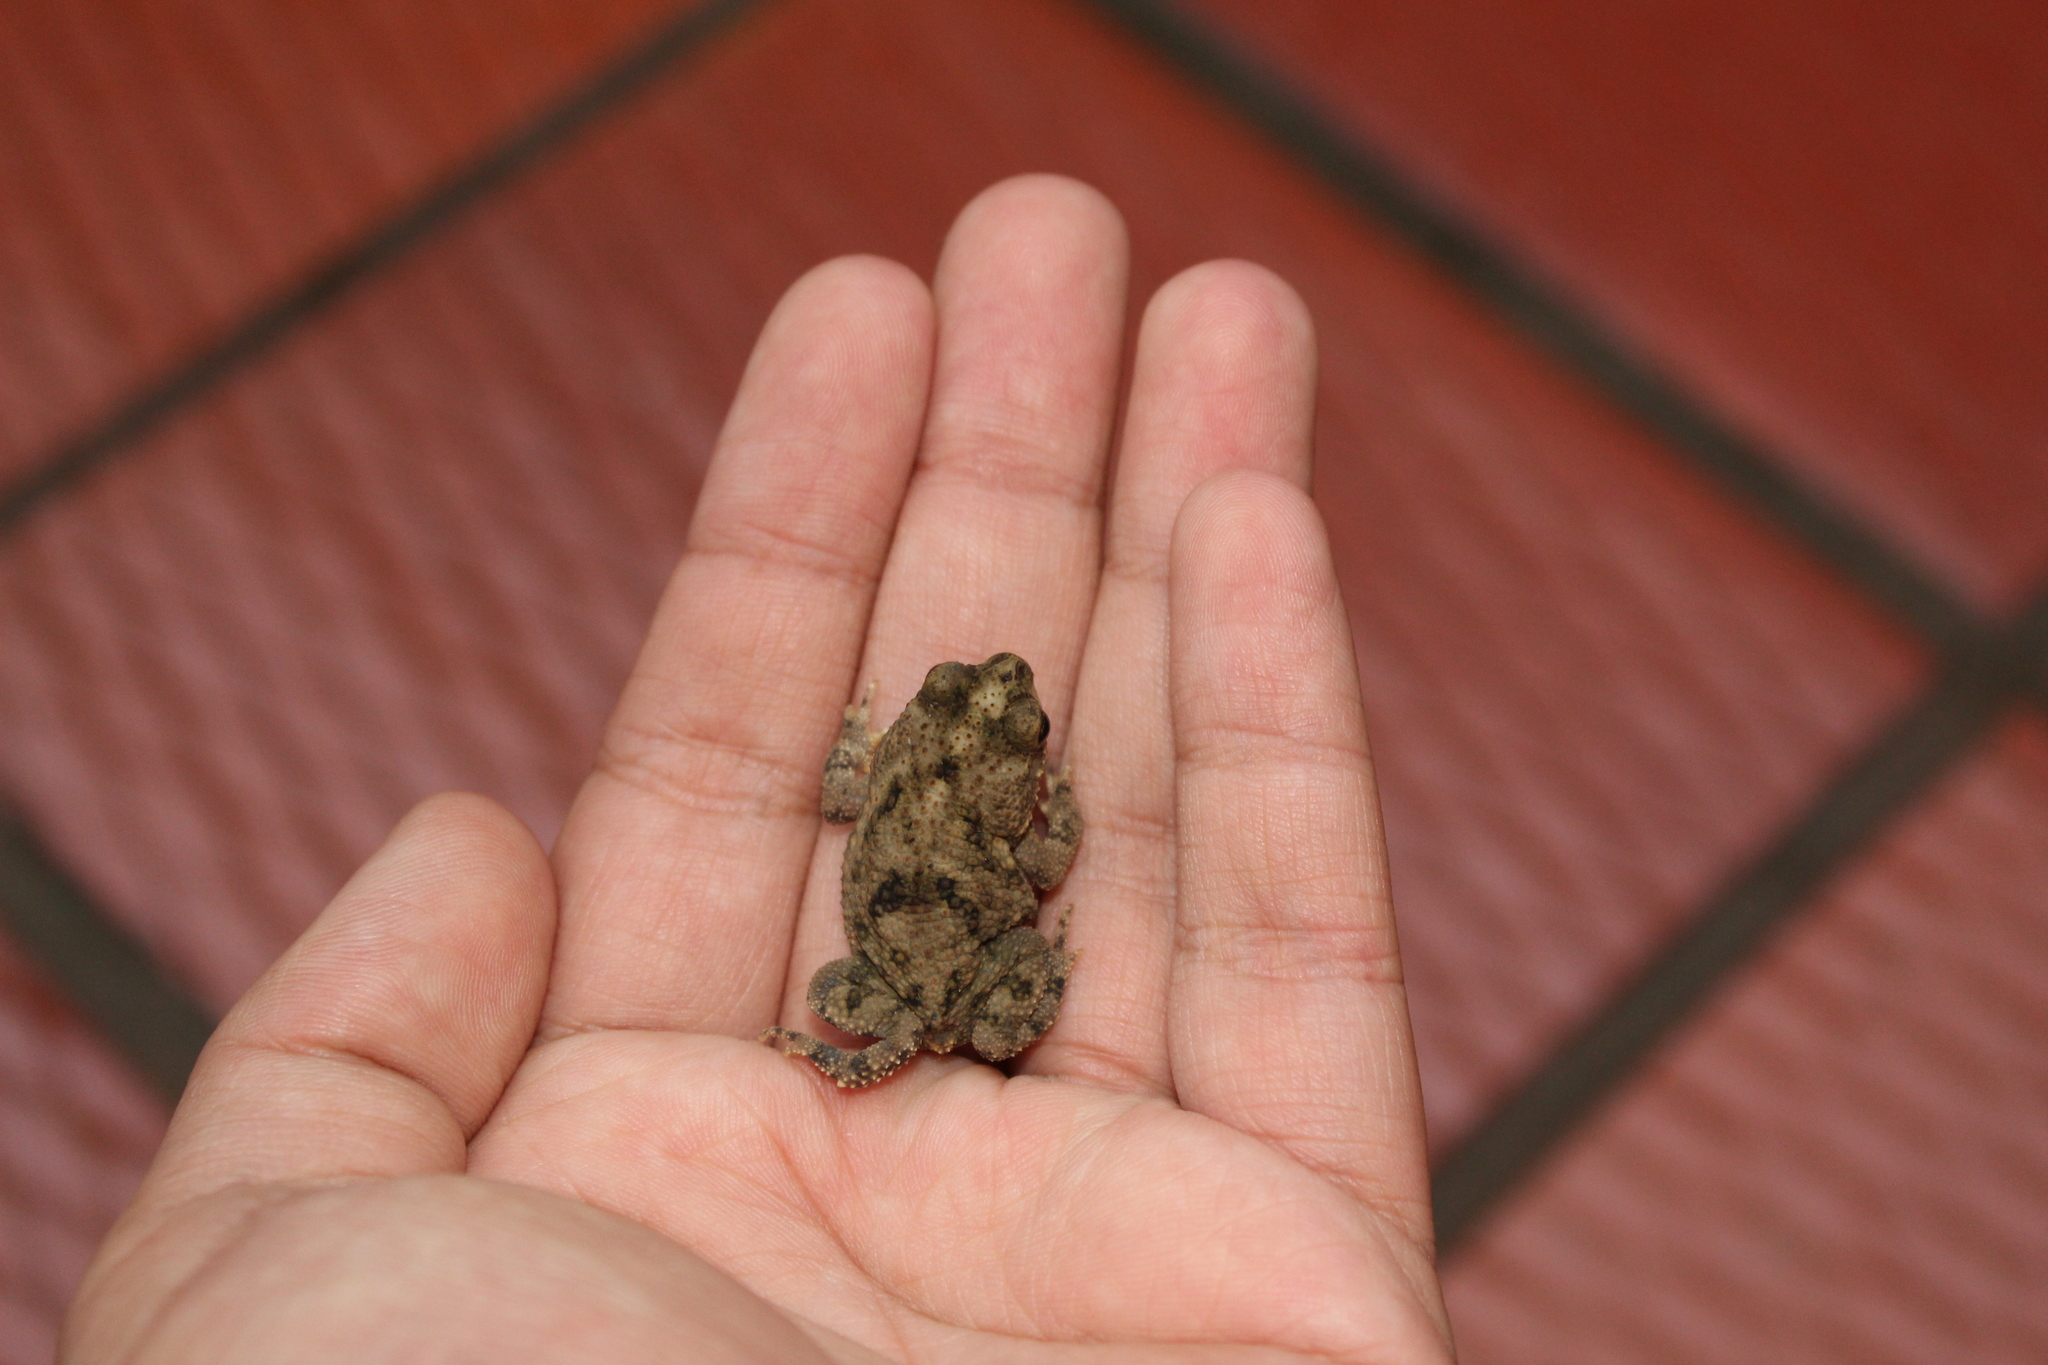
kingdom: Animalia
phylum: Chordata
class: Amphibia
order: Anura
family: Bufonidae
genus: Rhinella
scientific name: Rhinella beebei
